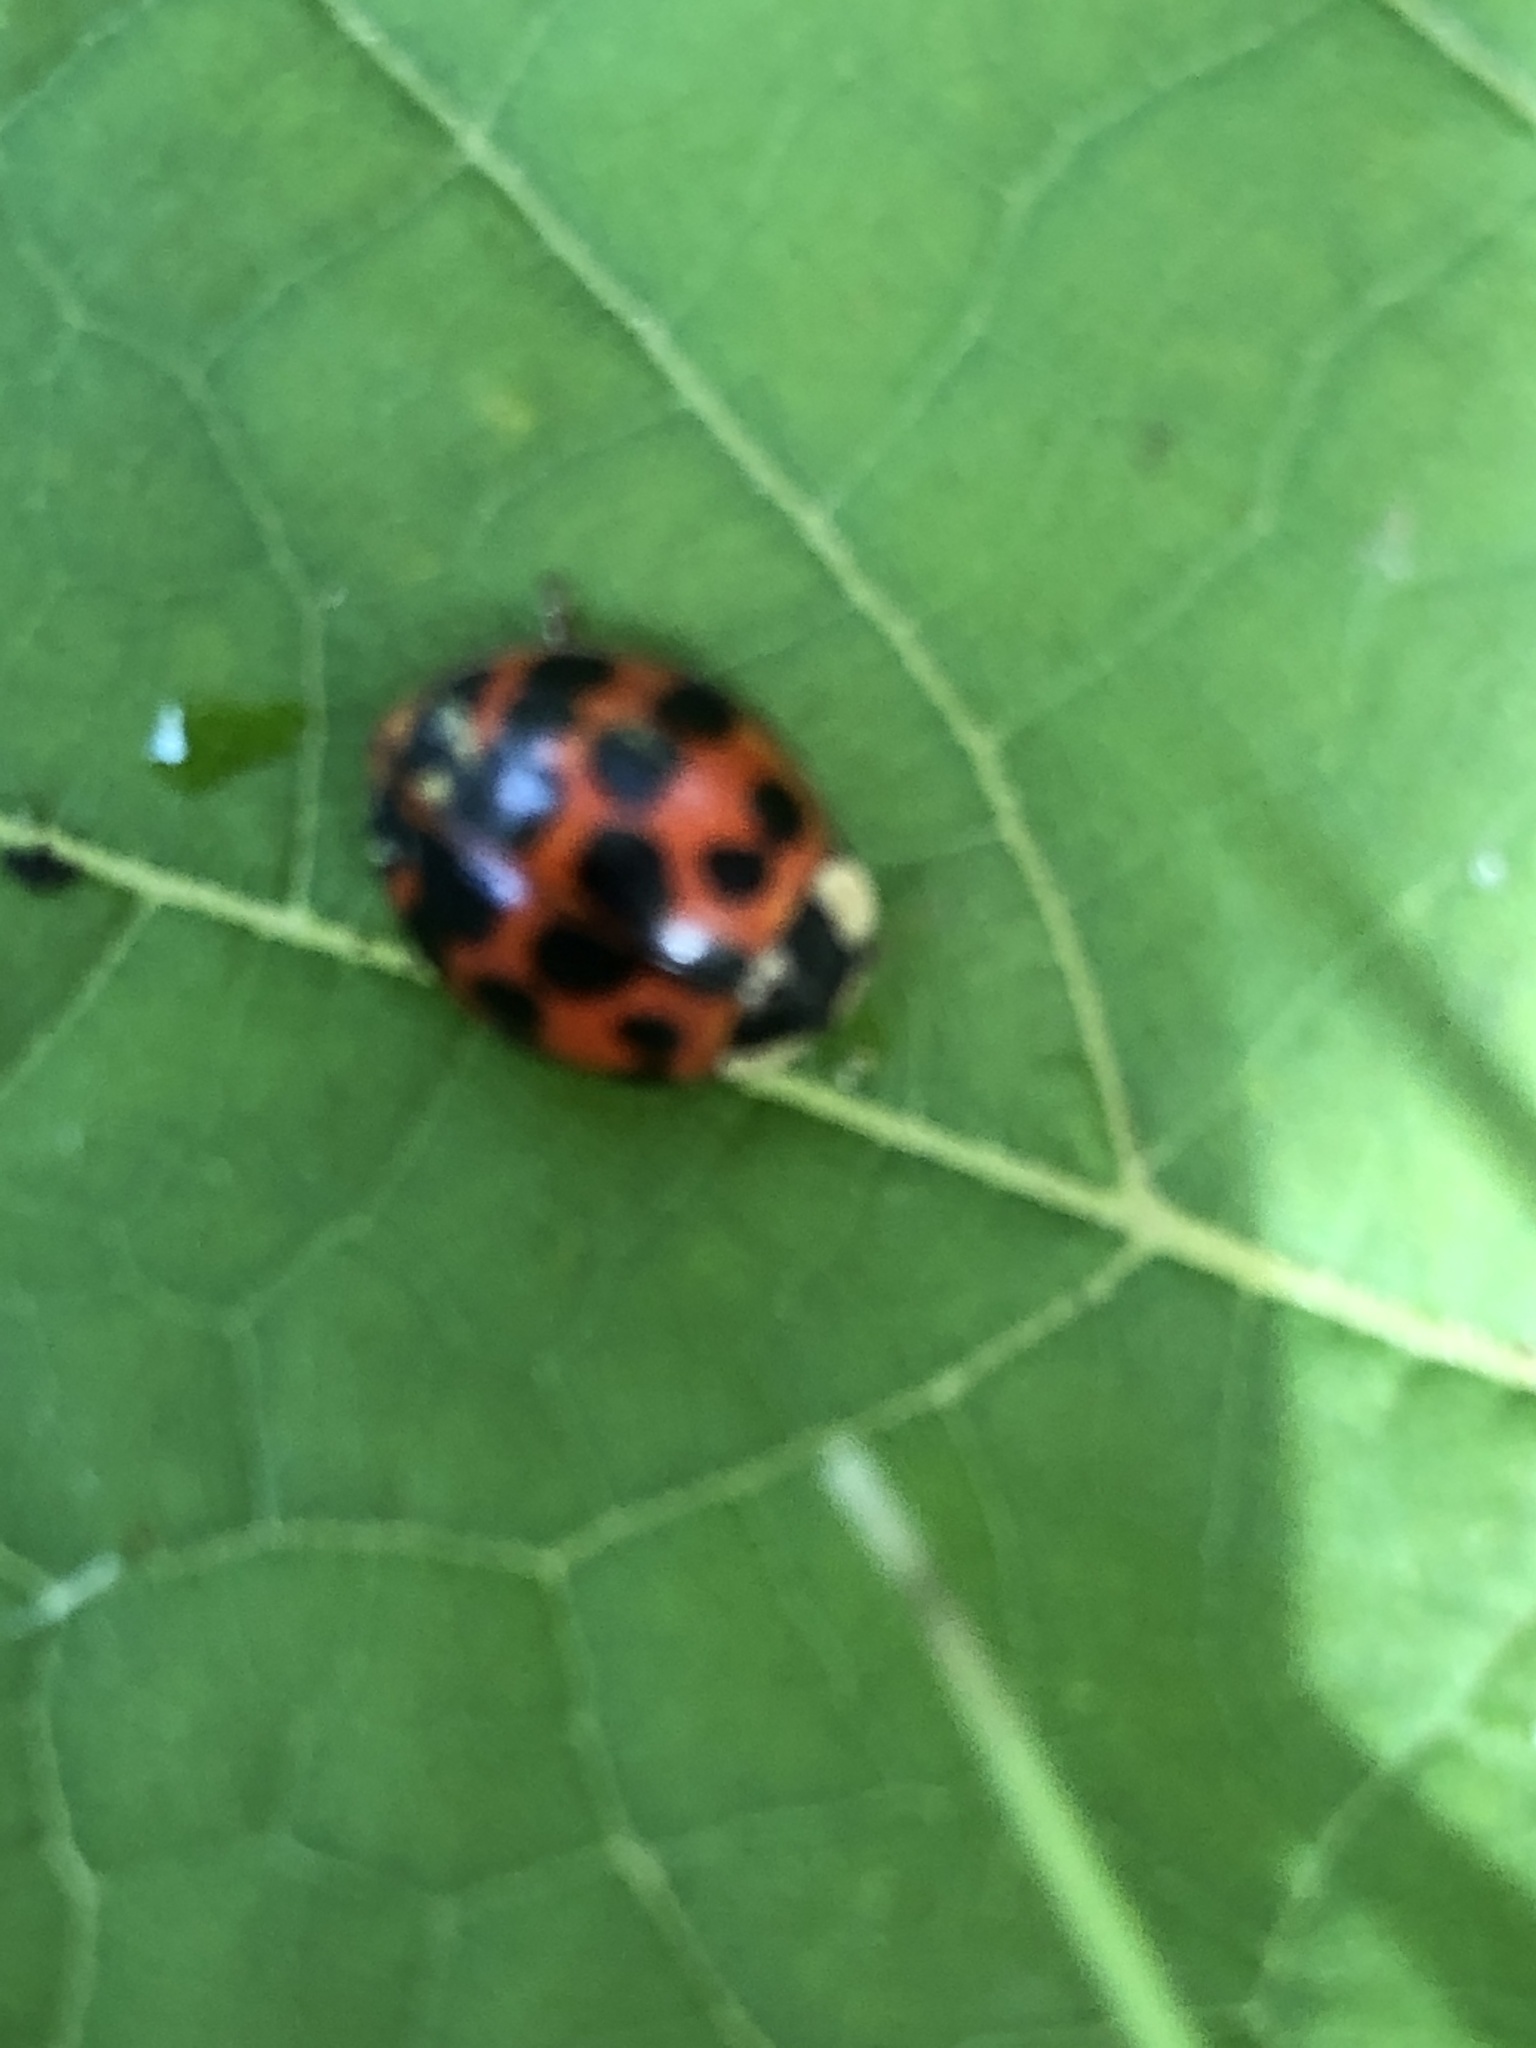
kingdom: Animalia
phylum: Arthropoda
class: Insecta
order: Coleoptera
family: Coccinellidae
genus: Harmonia
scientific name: Harmonia axyridis
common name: Harlequin ladybird
